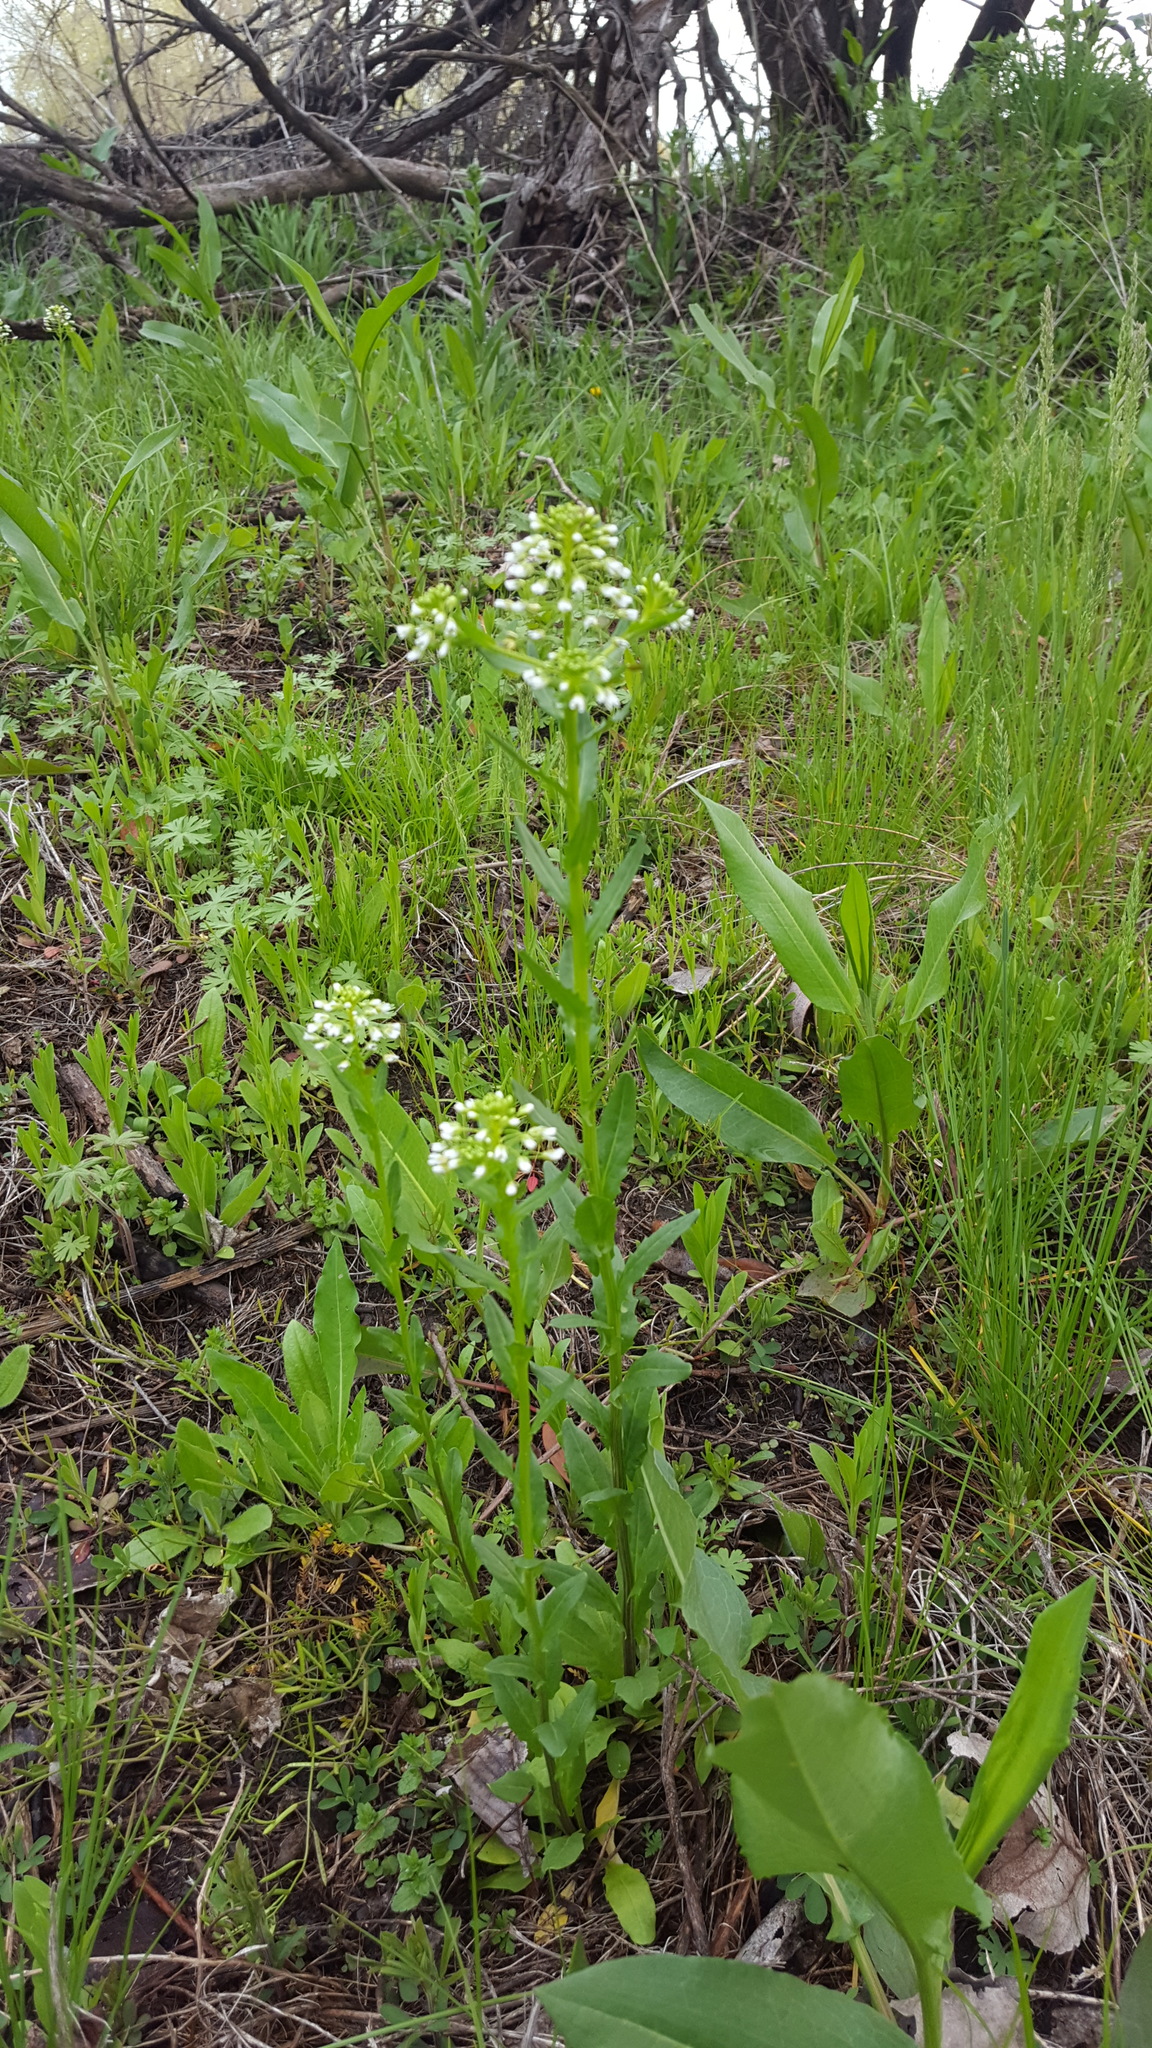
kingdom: Plantae
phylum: Tracheophyta
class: Magnoliopsida
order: Brassicales
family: Brassicaceae
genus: Thlaspi
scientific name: Thlaspi arvense
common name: Field pennycress
